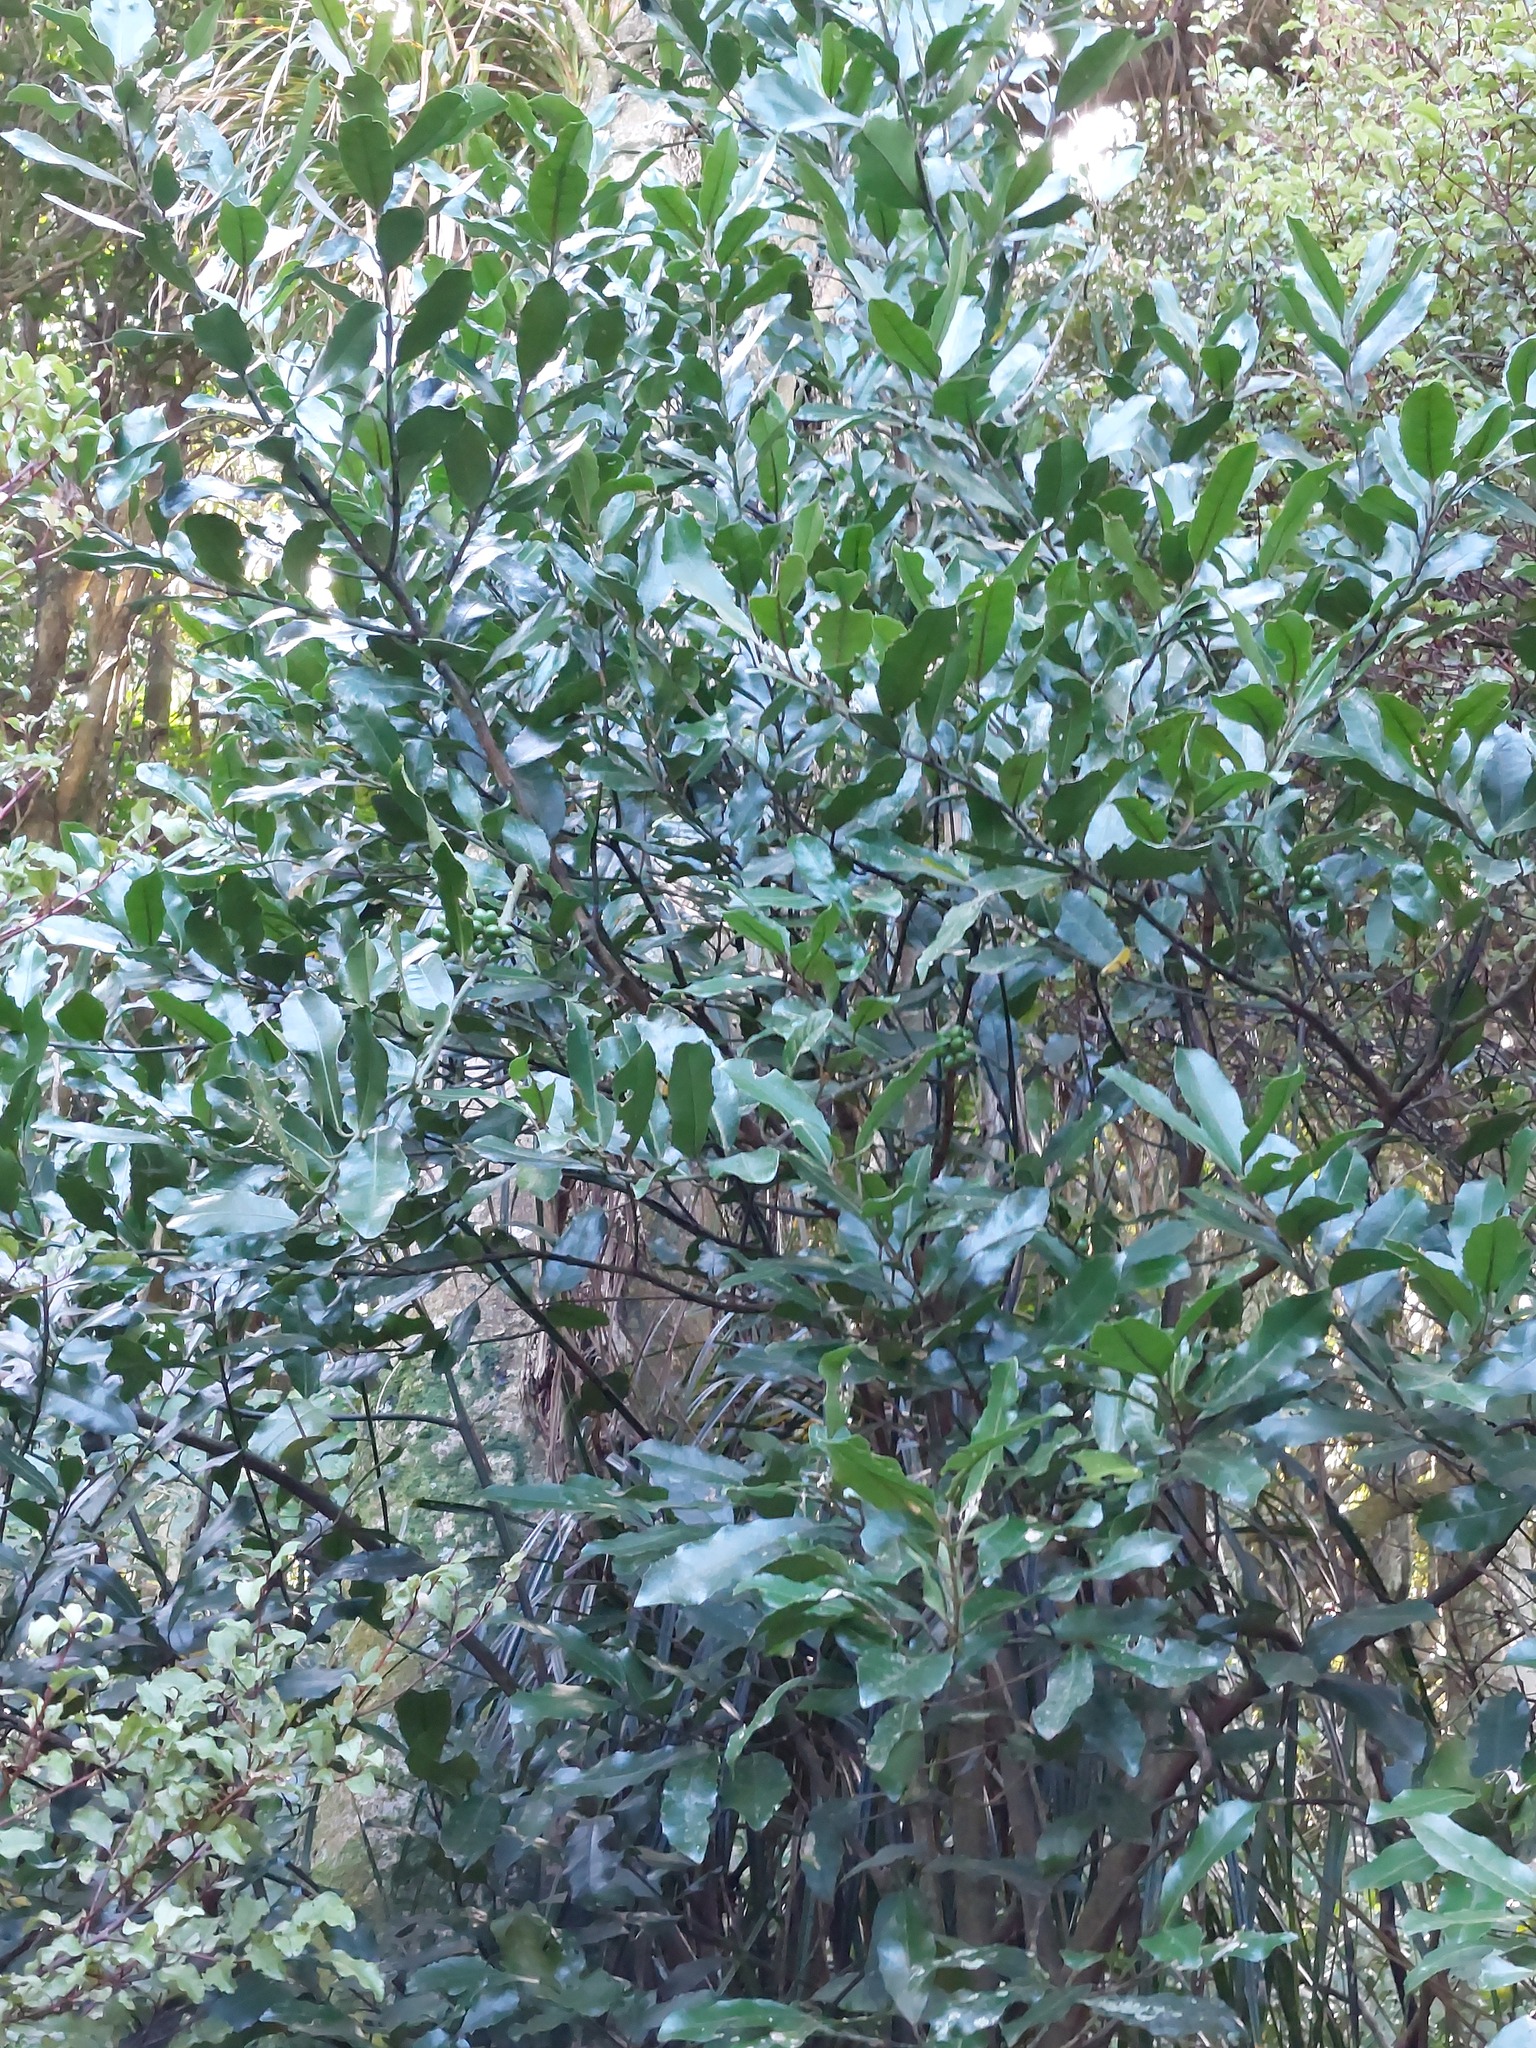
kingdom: Plantae
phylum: Tracheophyta
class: Magnoliopsida
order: Laurales
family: Monimiaceae
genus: Hedycarya
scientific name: Hedycarya arborea
